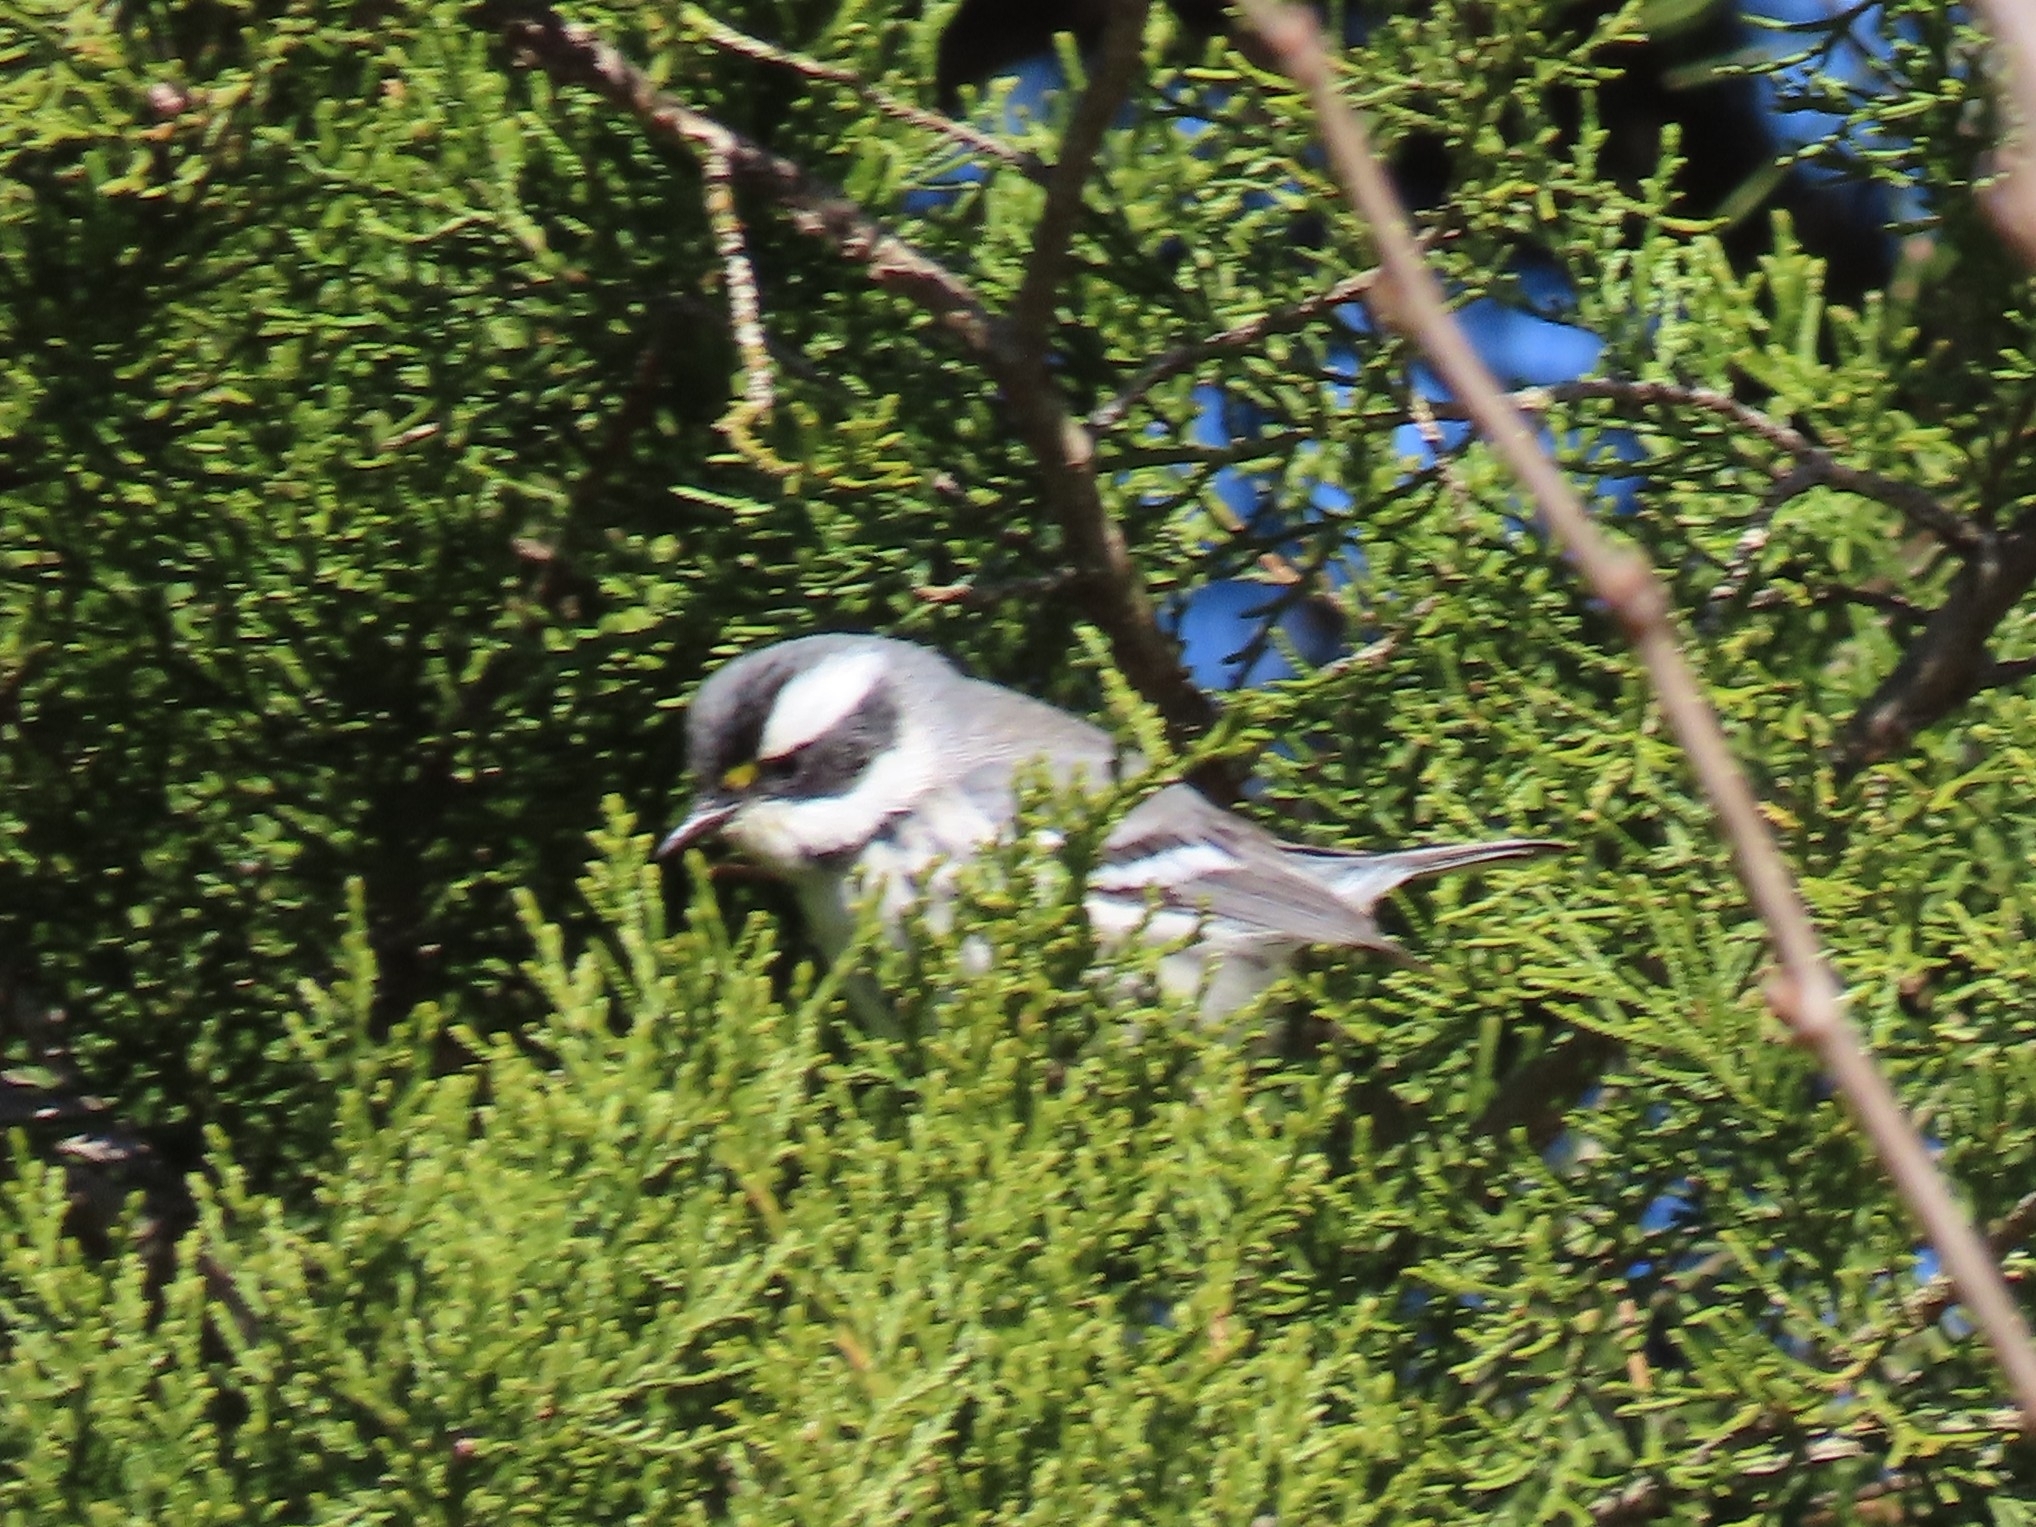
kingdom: Animalia
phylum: Chordata
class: Aves
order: Passeriformes
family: Parulidae
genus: Setophaga
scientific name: Setophaga nigrescens
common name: Black-throated gray warbler
